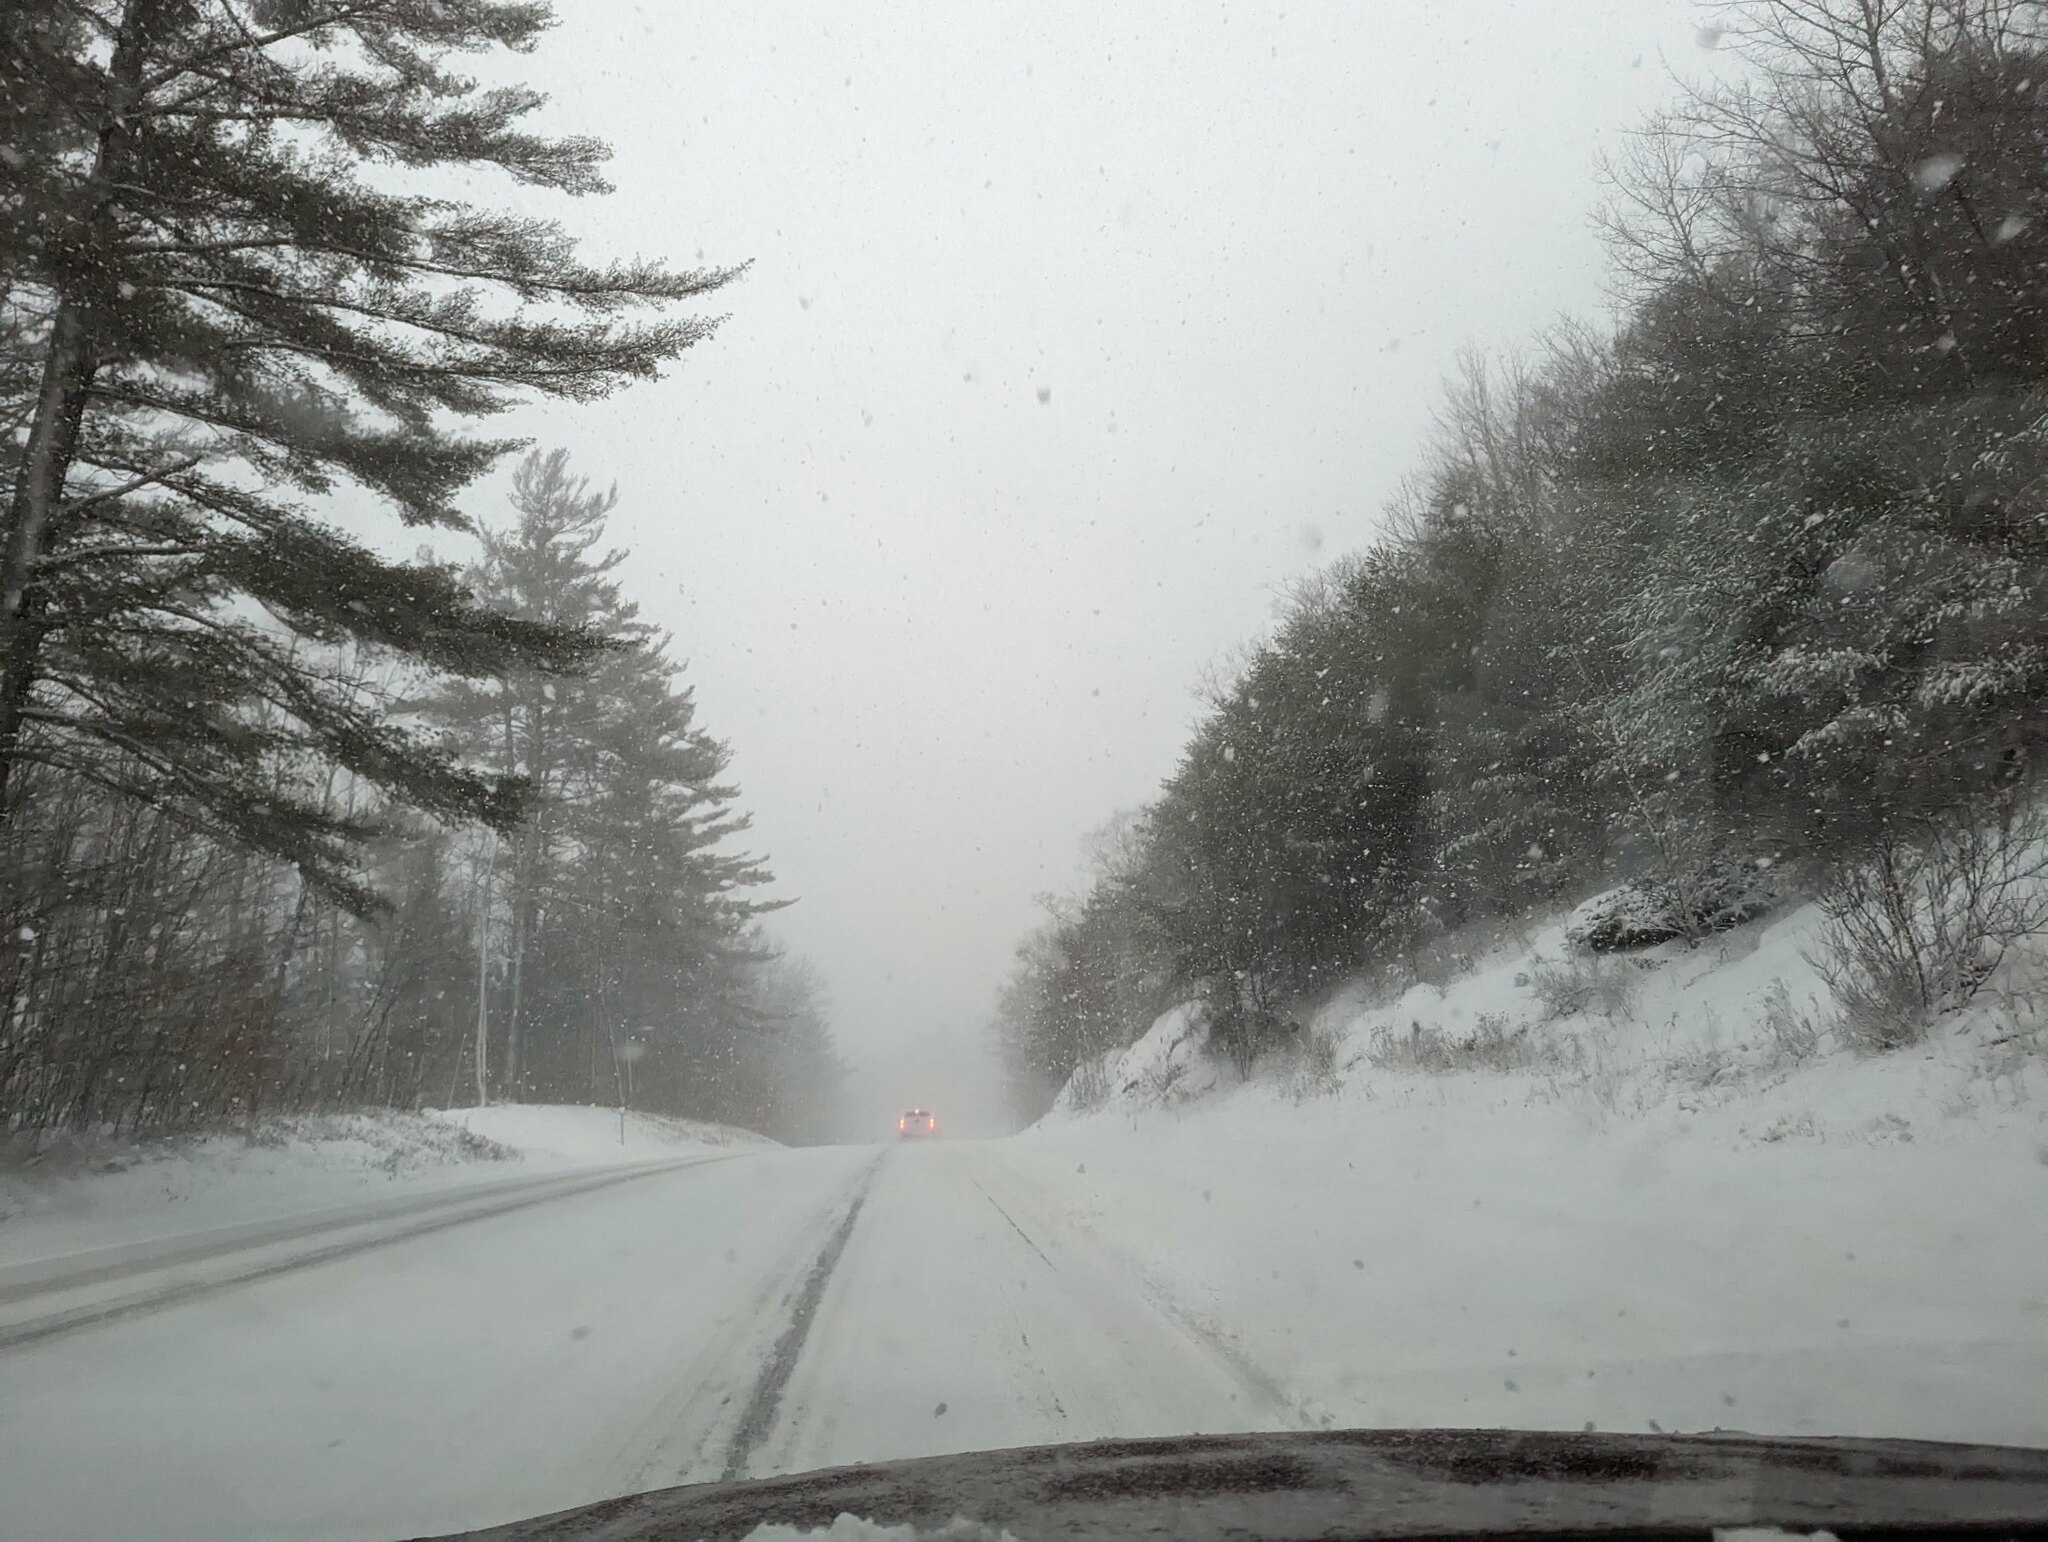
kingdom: Plantae
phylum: Tracheophyta
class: Pinopsida
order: Pinales
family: Pinaceae
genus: Pinus
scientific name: Pinus strobus
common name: Weymouth pine
